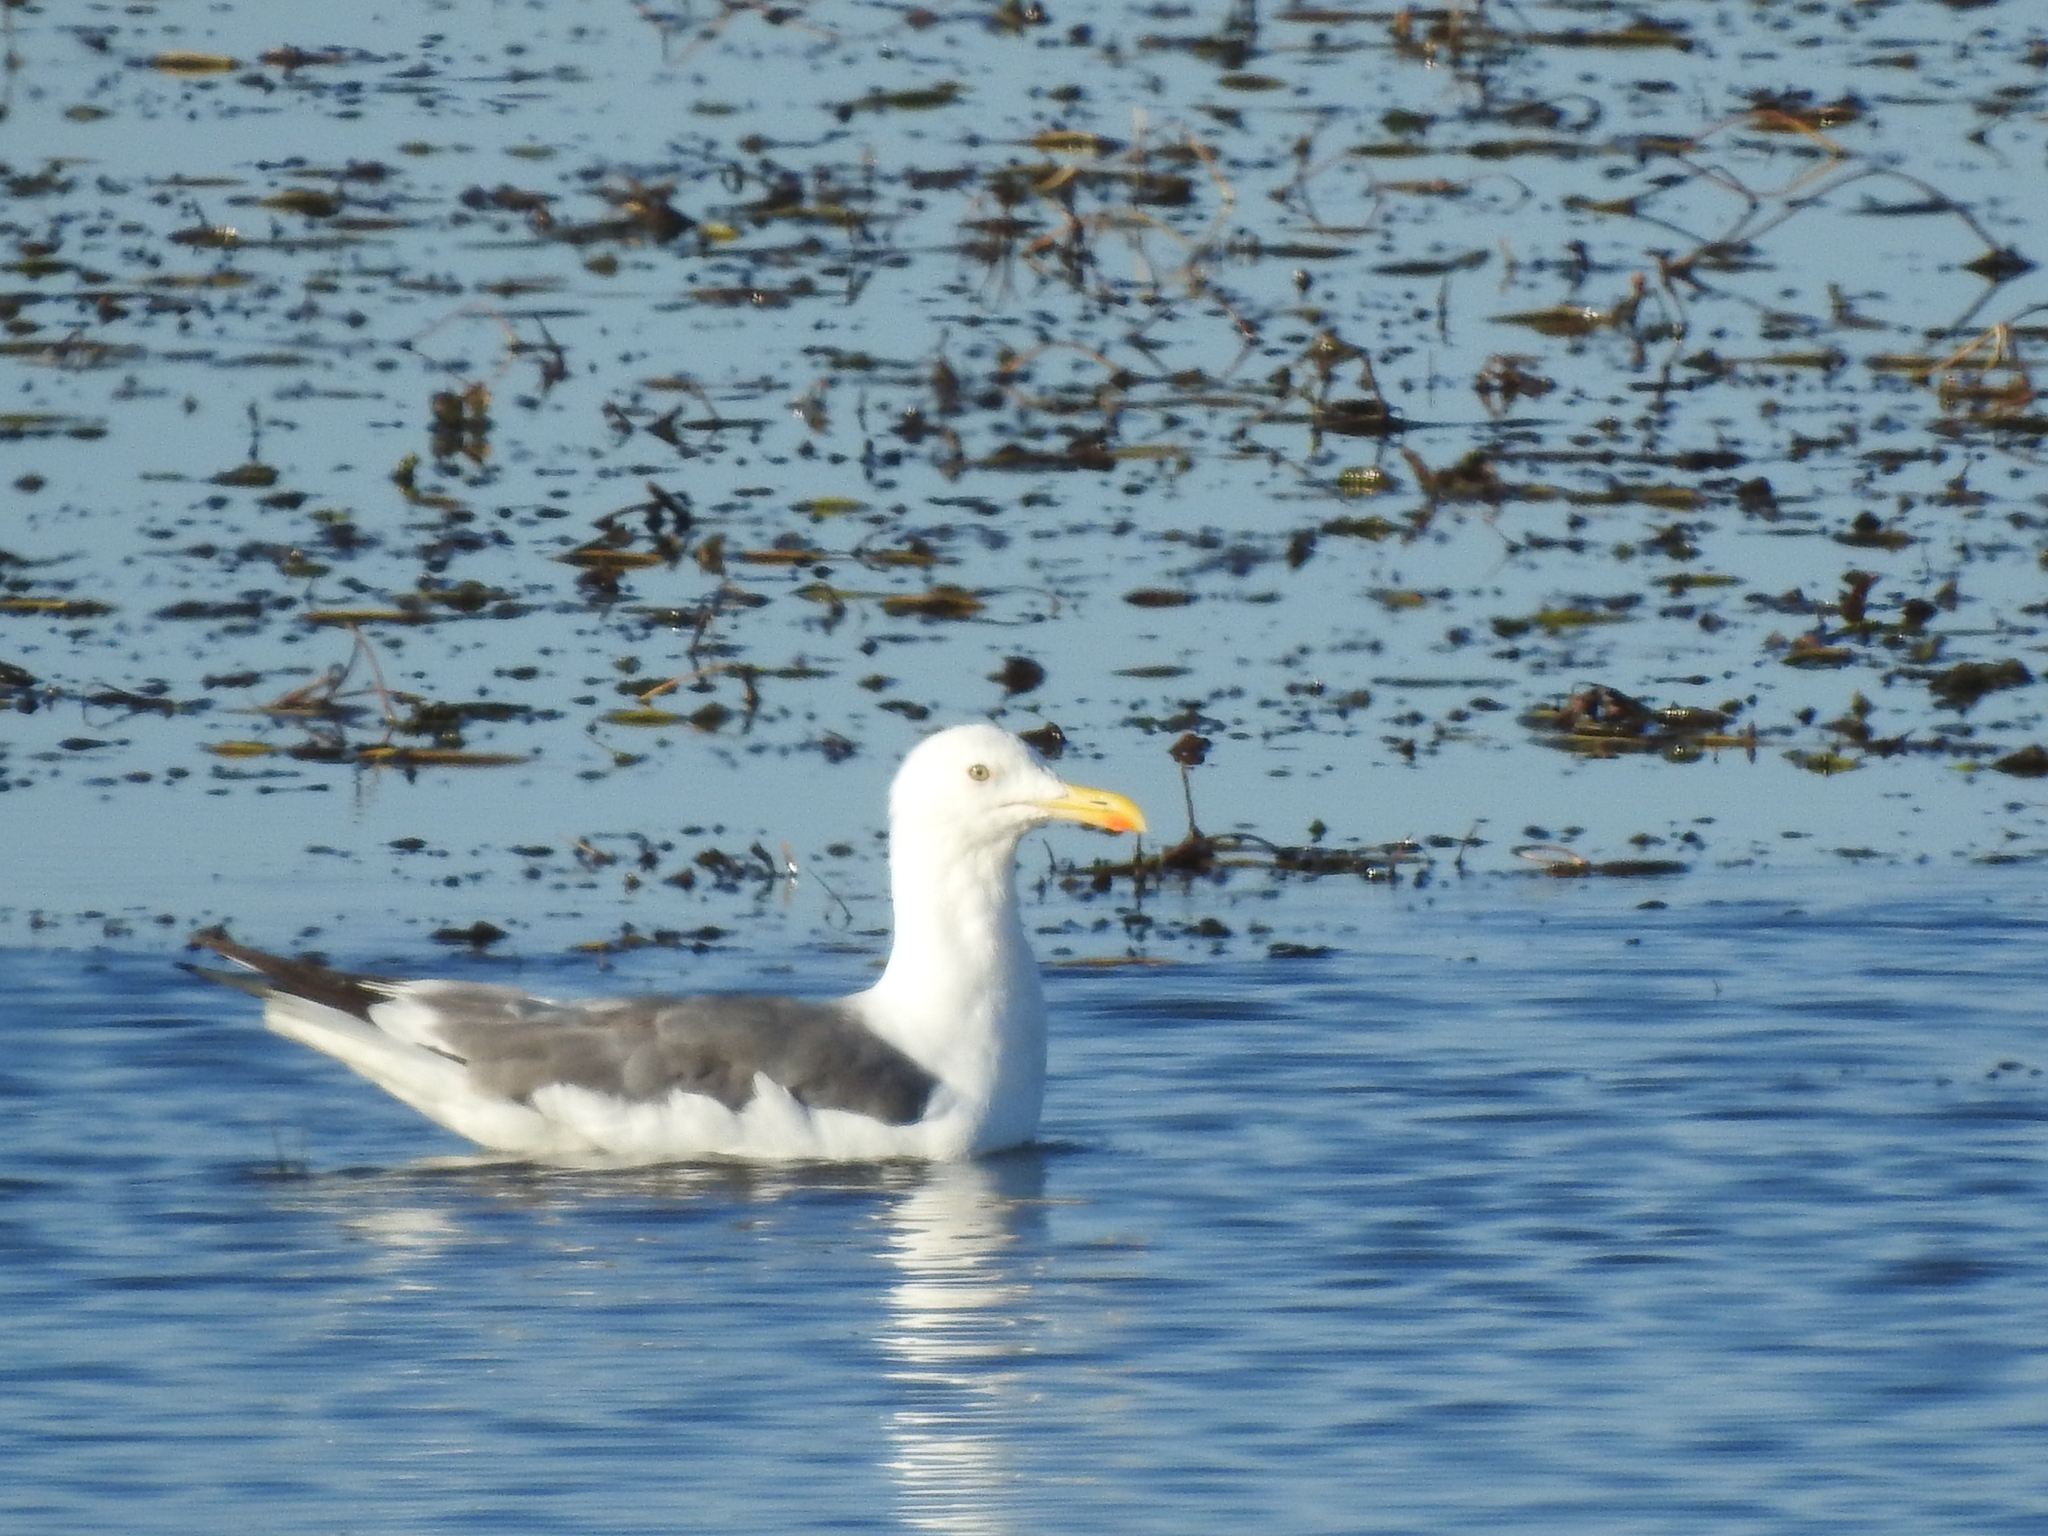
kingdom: Animalia
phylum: Chordata
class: Aves
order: Charadriiformes
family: Laridae
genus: Larus
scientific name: Larus fuscus
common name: Lesser black-backed gull
